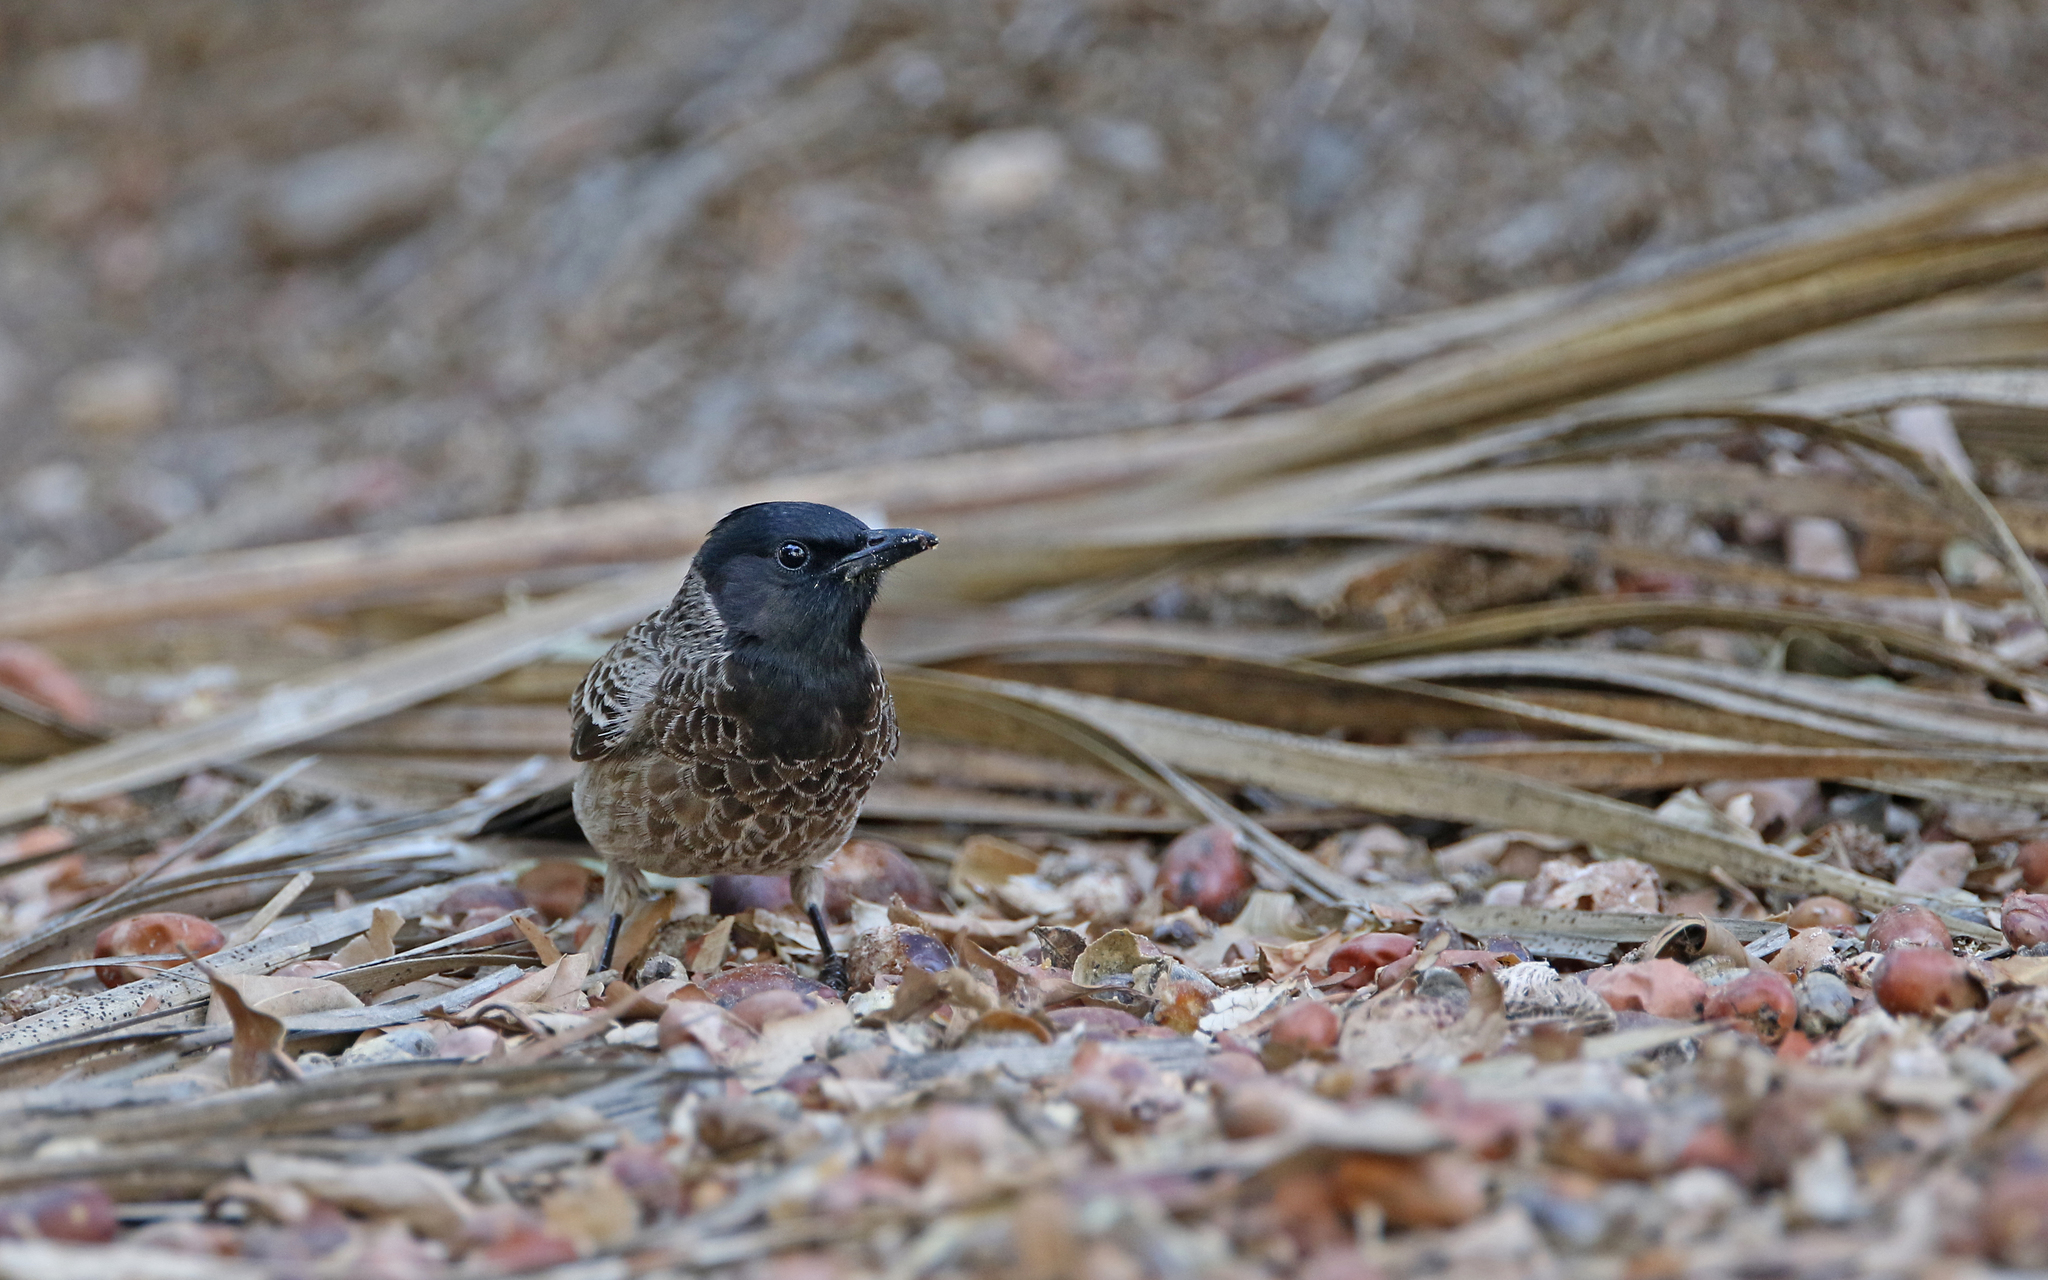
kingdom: Animalia
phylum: Chordata
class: Aves
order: Passeriformes
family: Pycnonotidae
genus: Pycnonotus
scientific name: Pycnonotus cafer
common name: Red-vented bulbul
